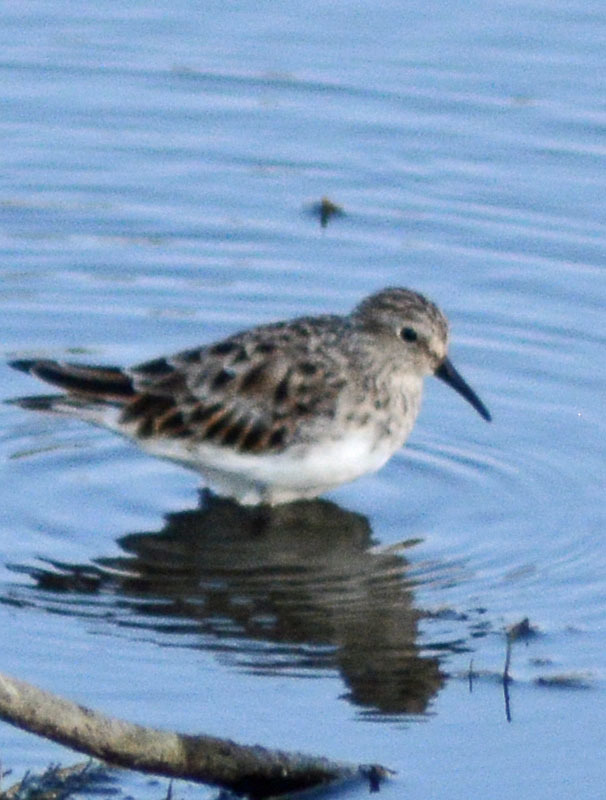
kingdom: Animalia
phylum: Chordata
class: Aves
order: Charadriiformes
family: Scolopacidae
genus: Calidris
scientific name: Calidris minutilla
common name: Least sandpiper
